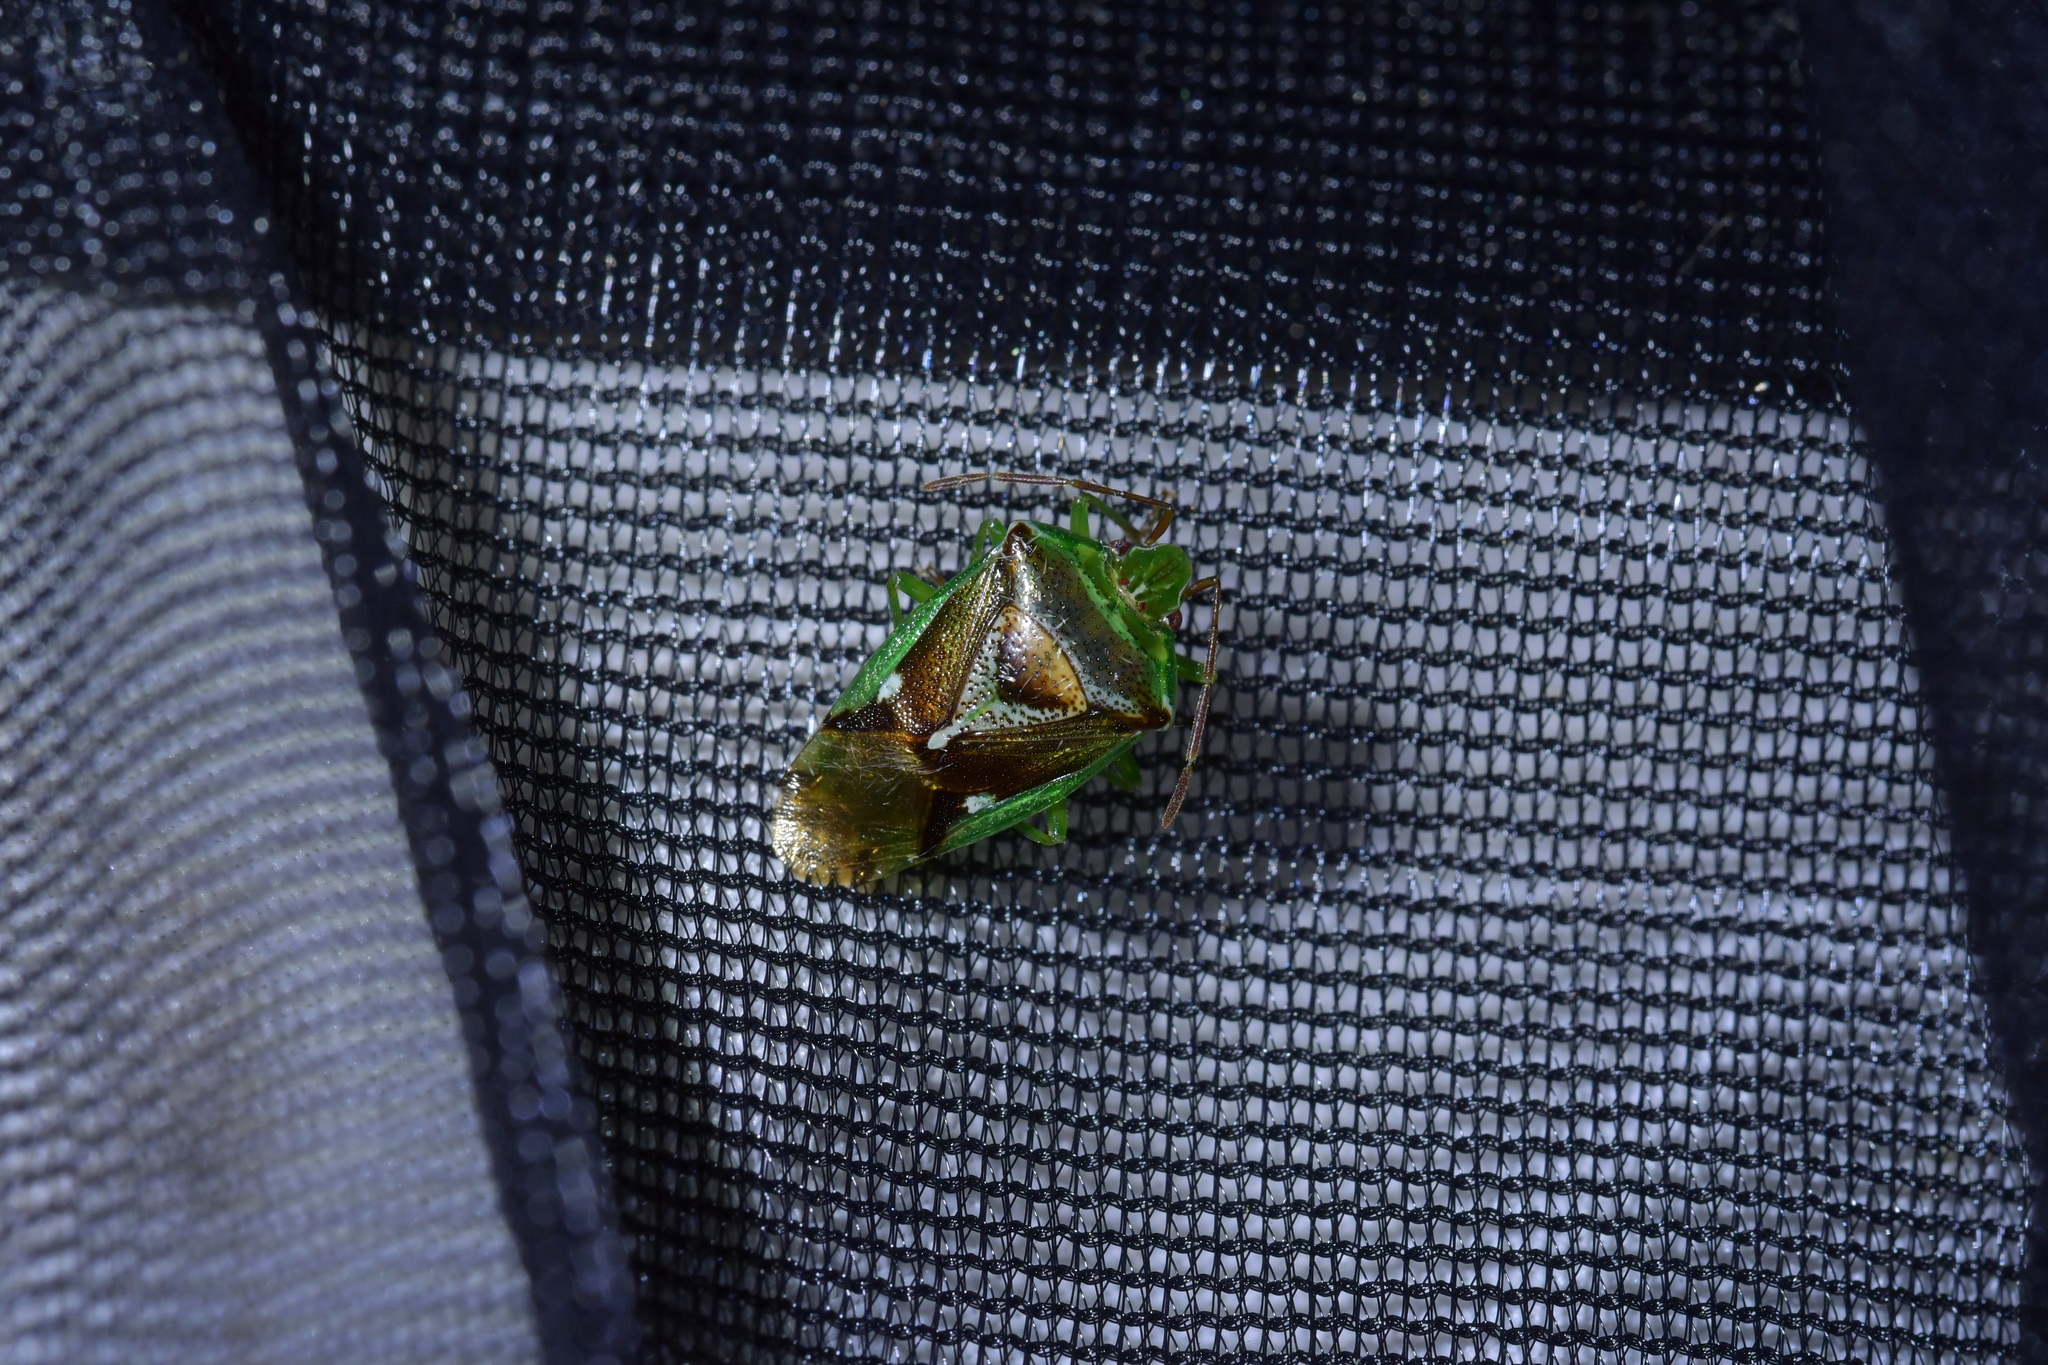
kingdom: Animalia
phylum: Arthropoda
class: Insecta
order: Hemiptera
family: Acanthosomatidae
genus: Oncacontias
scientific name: Oncacontias vittatus
